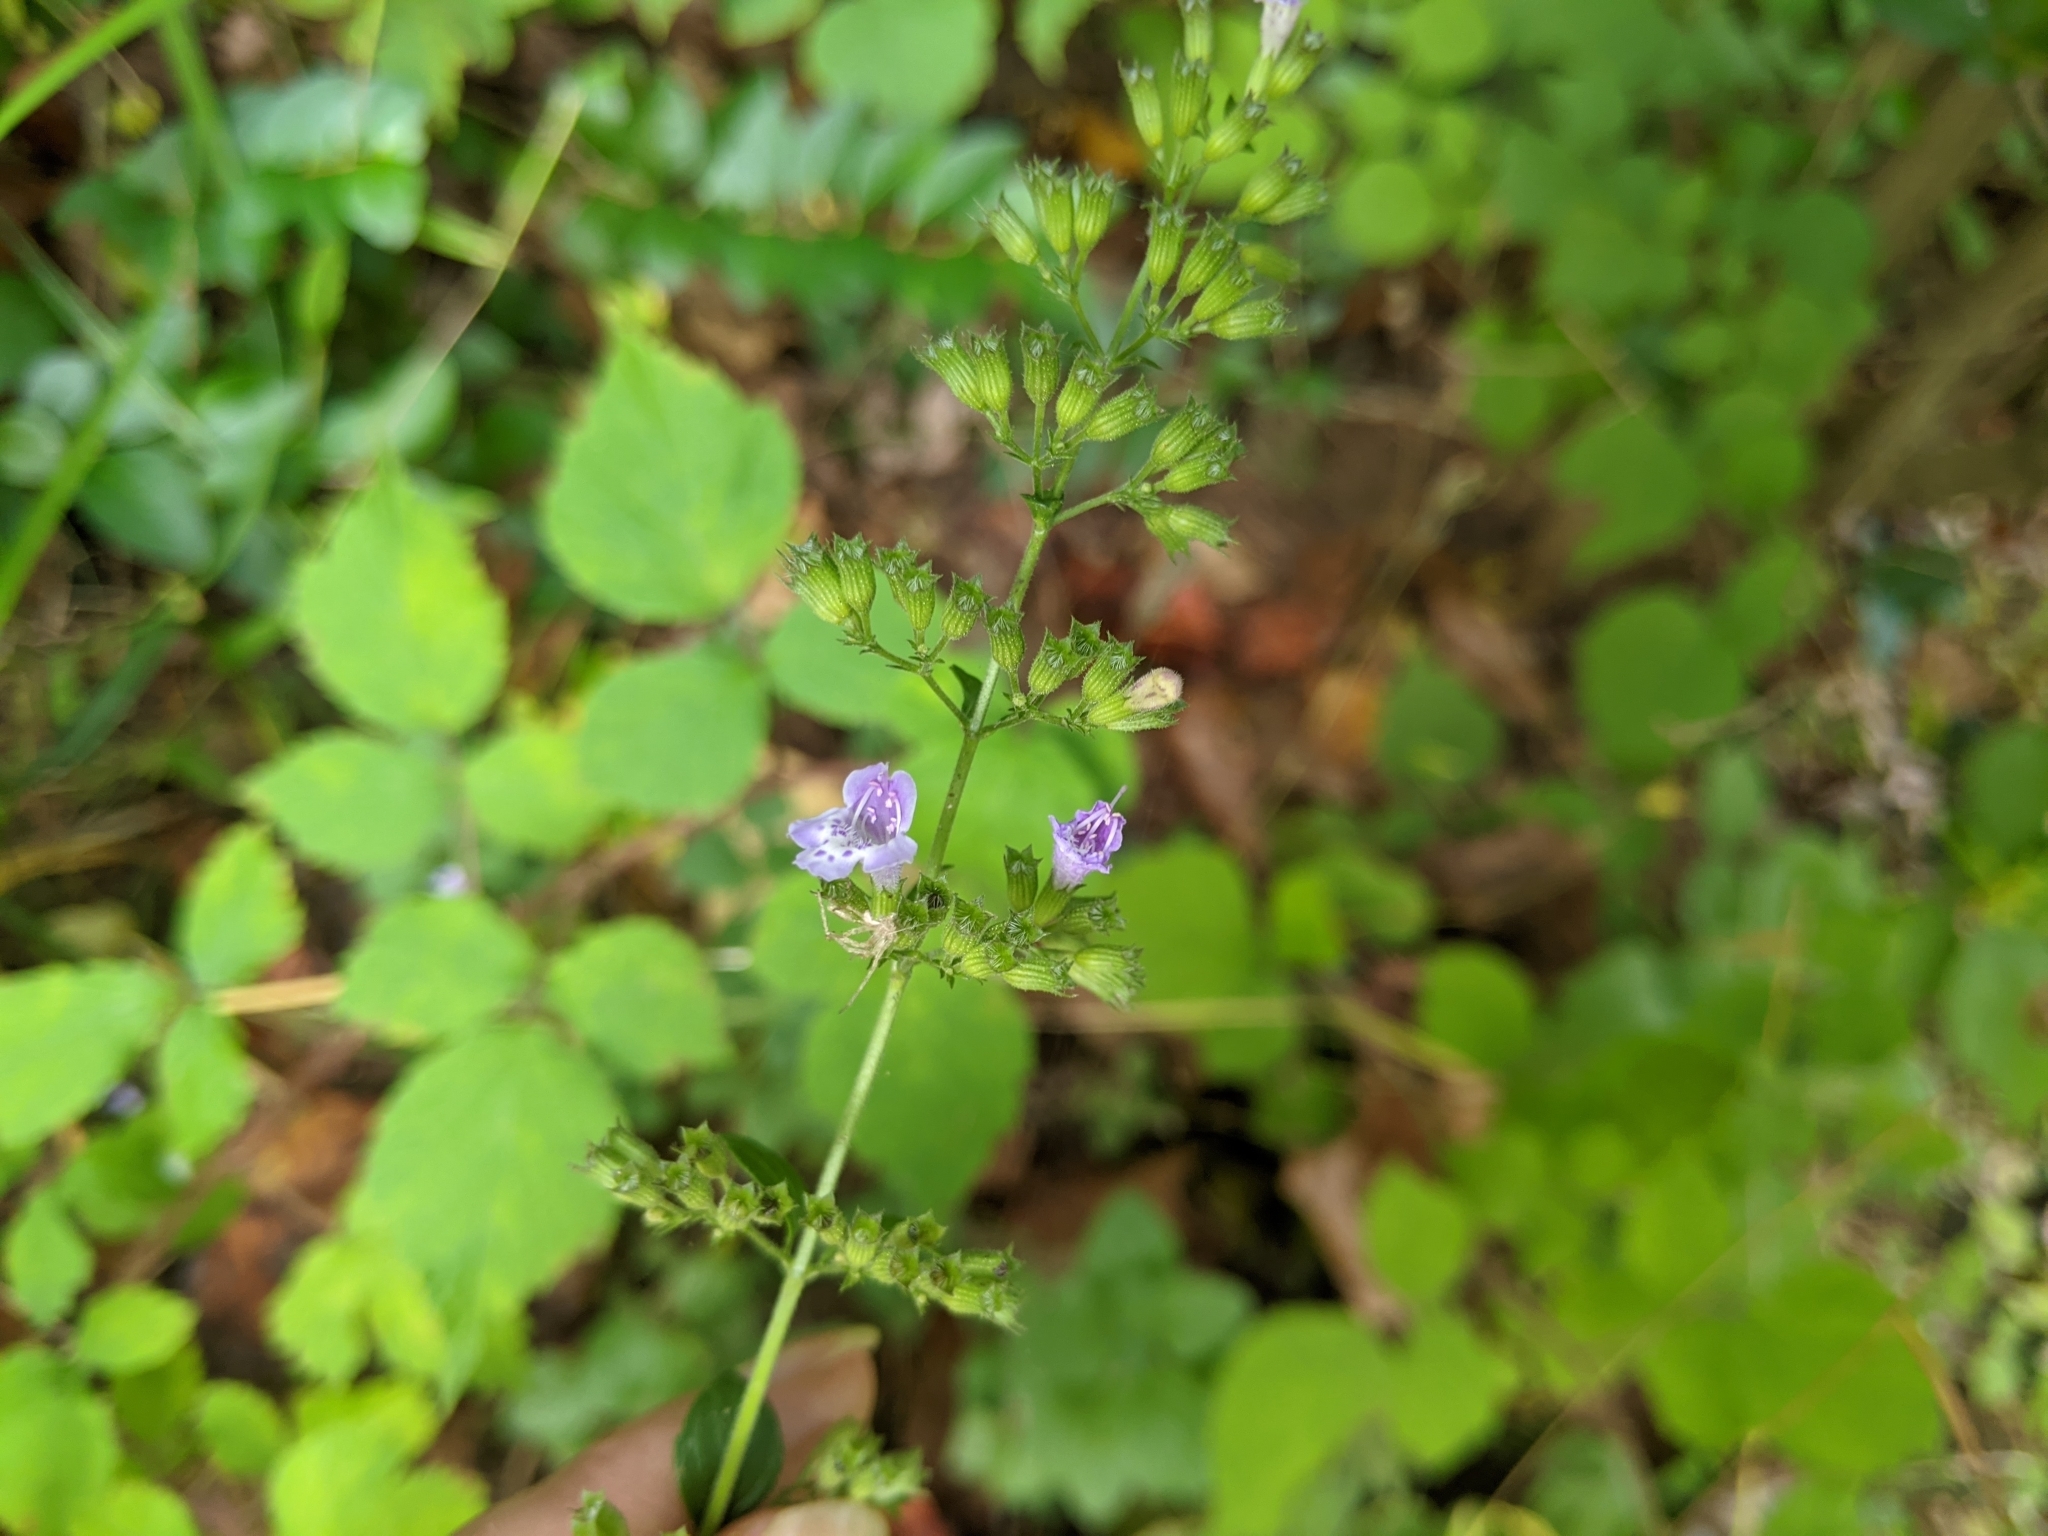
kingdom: Plantae
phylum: Tracheophyta
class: Magnoliopsida
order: Lamiales
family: Lamiaceae
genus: Clinopodium
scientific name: Clinopodium nepeta
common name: Lesser calamint
